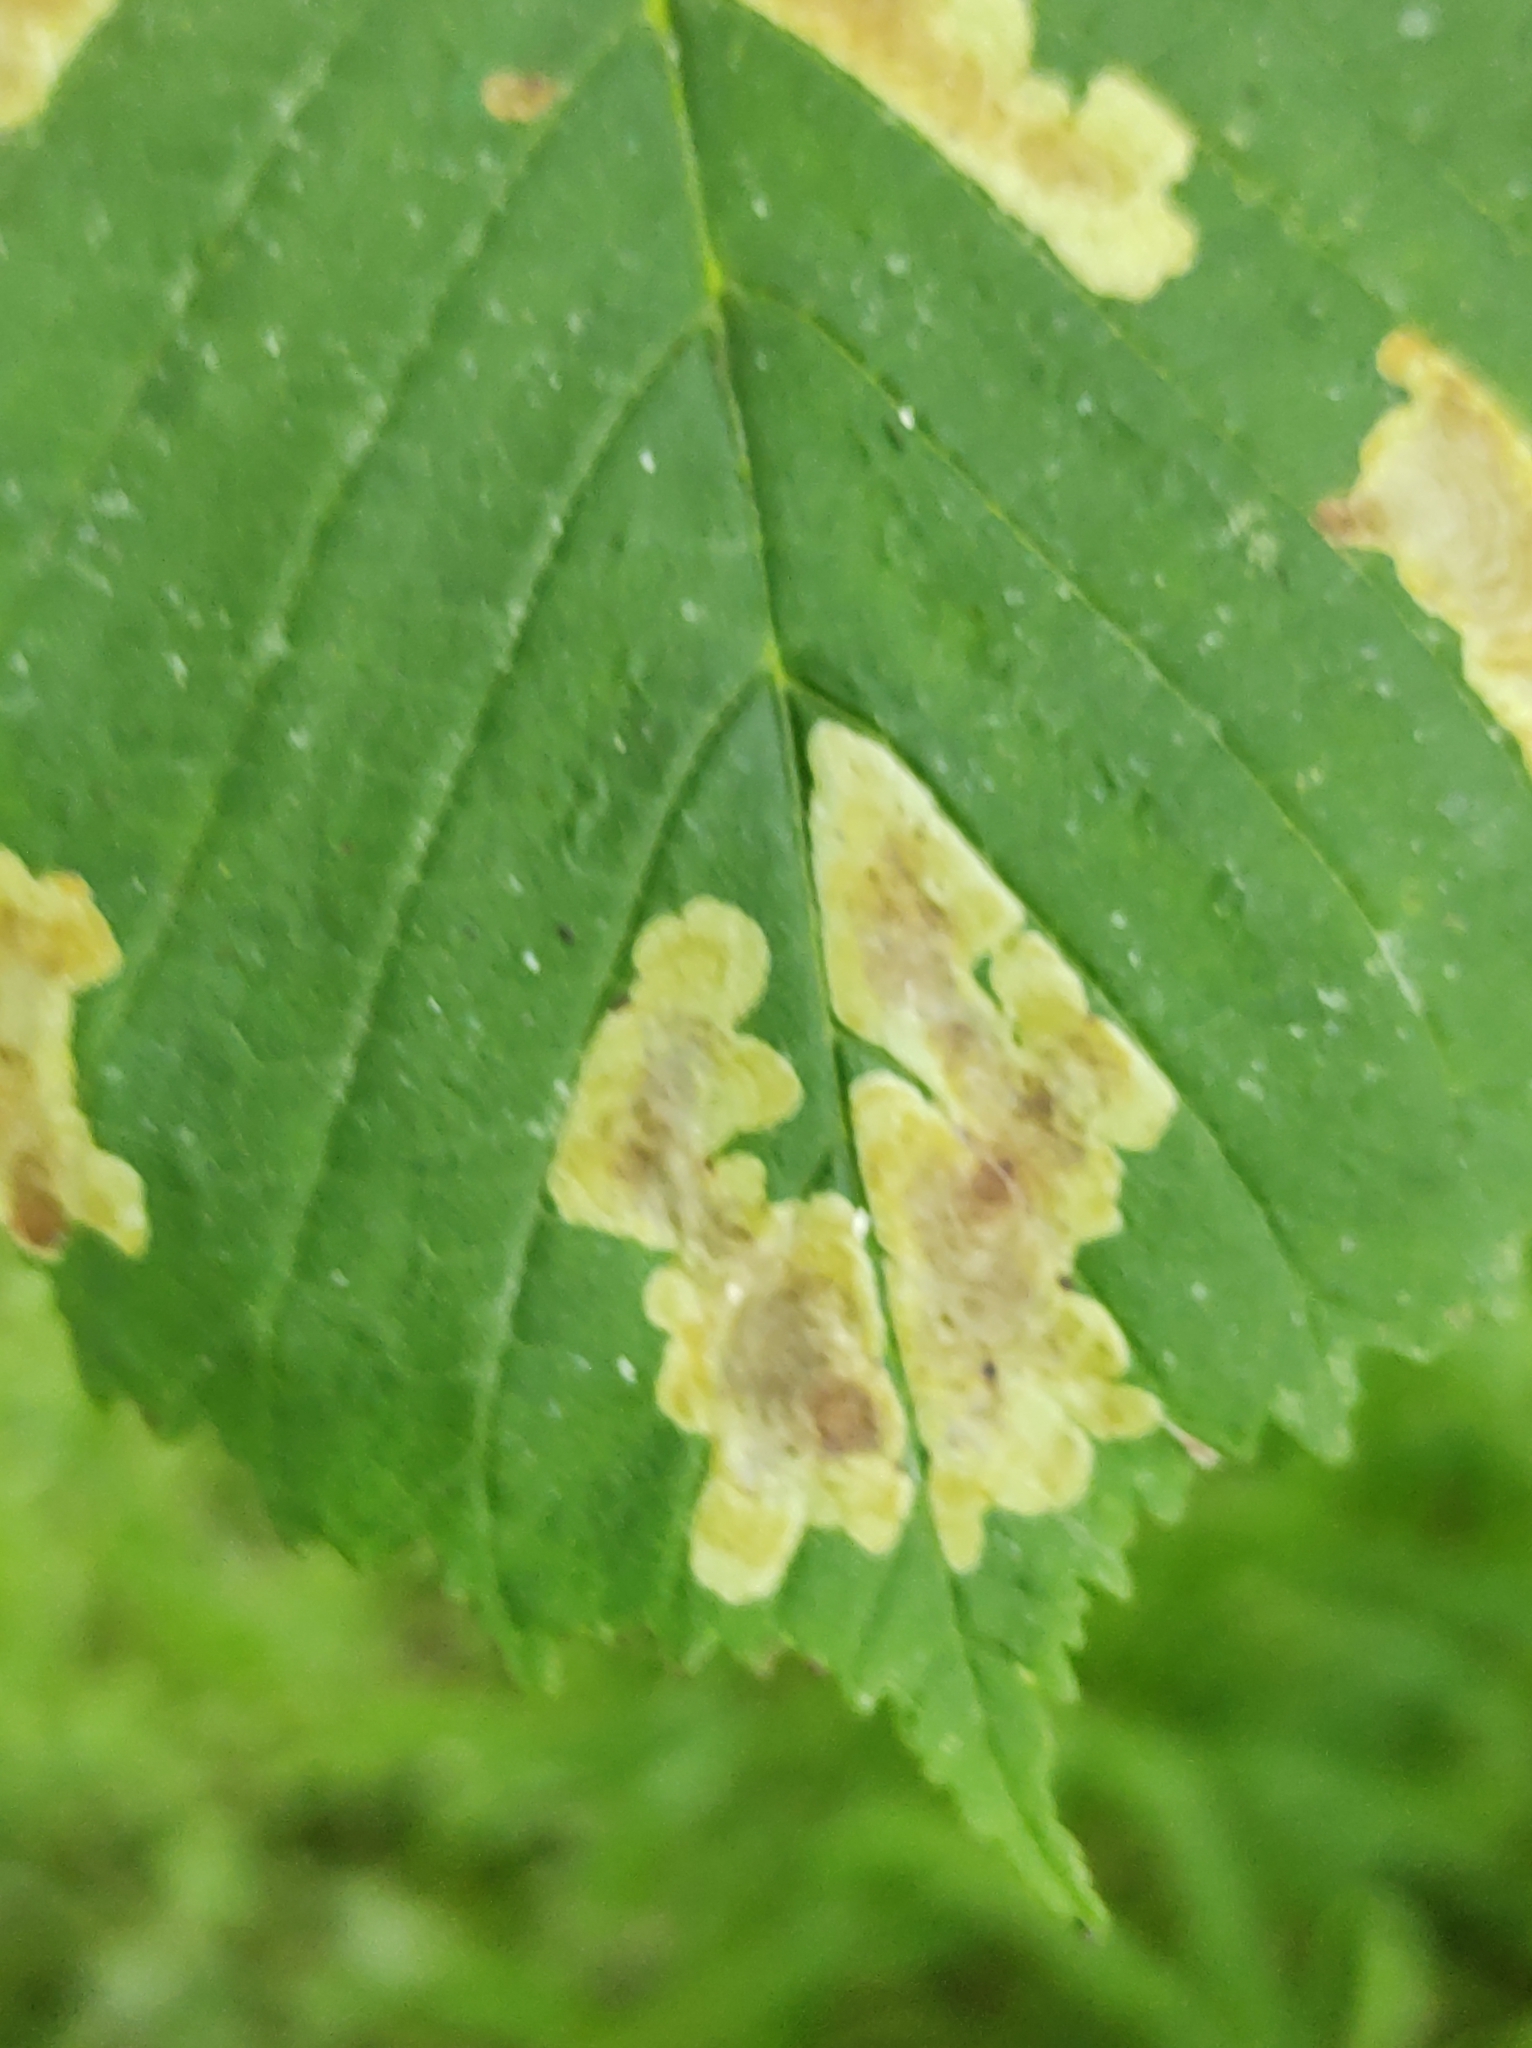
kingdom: Animalia
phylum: Arthropoda
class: Insecta
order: Lepidoptera
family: Gracillariidae
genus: Cameraria
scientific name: Cameraria ohridella
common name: Horse-chestnut leaf-miner
